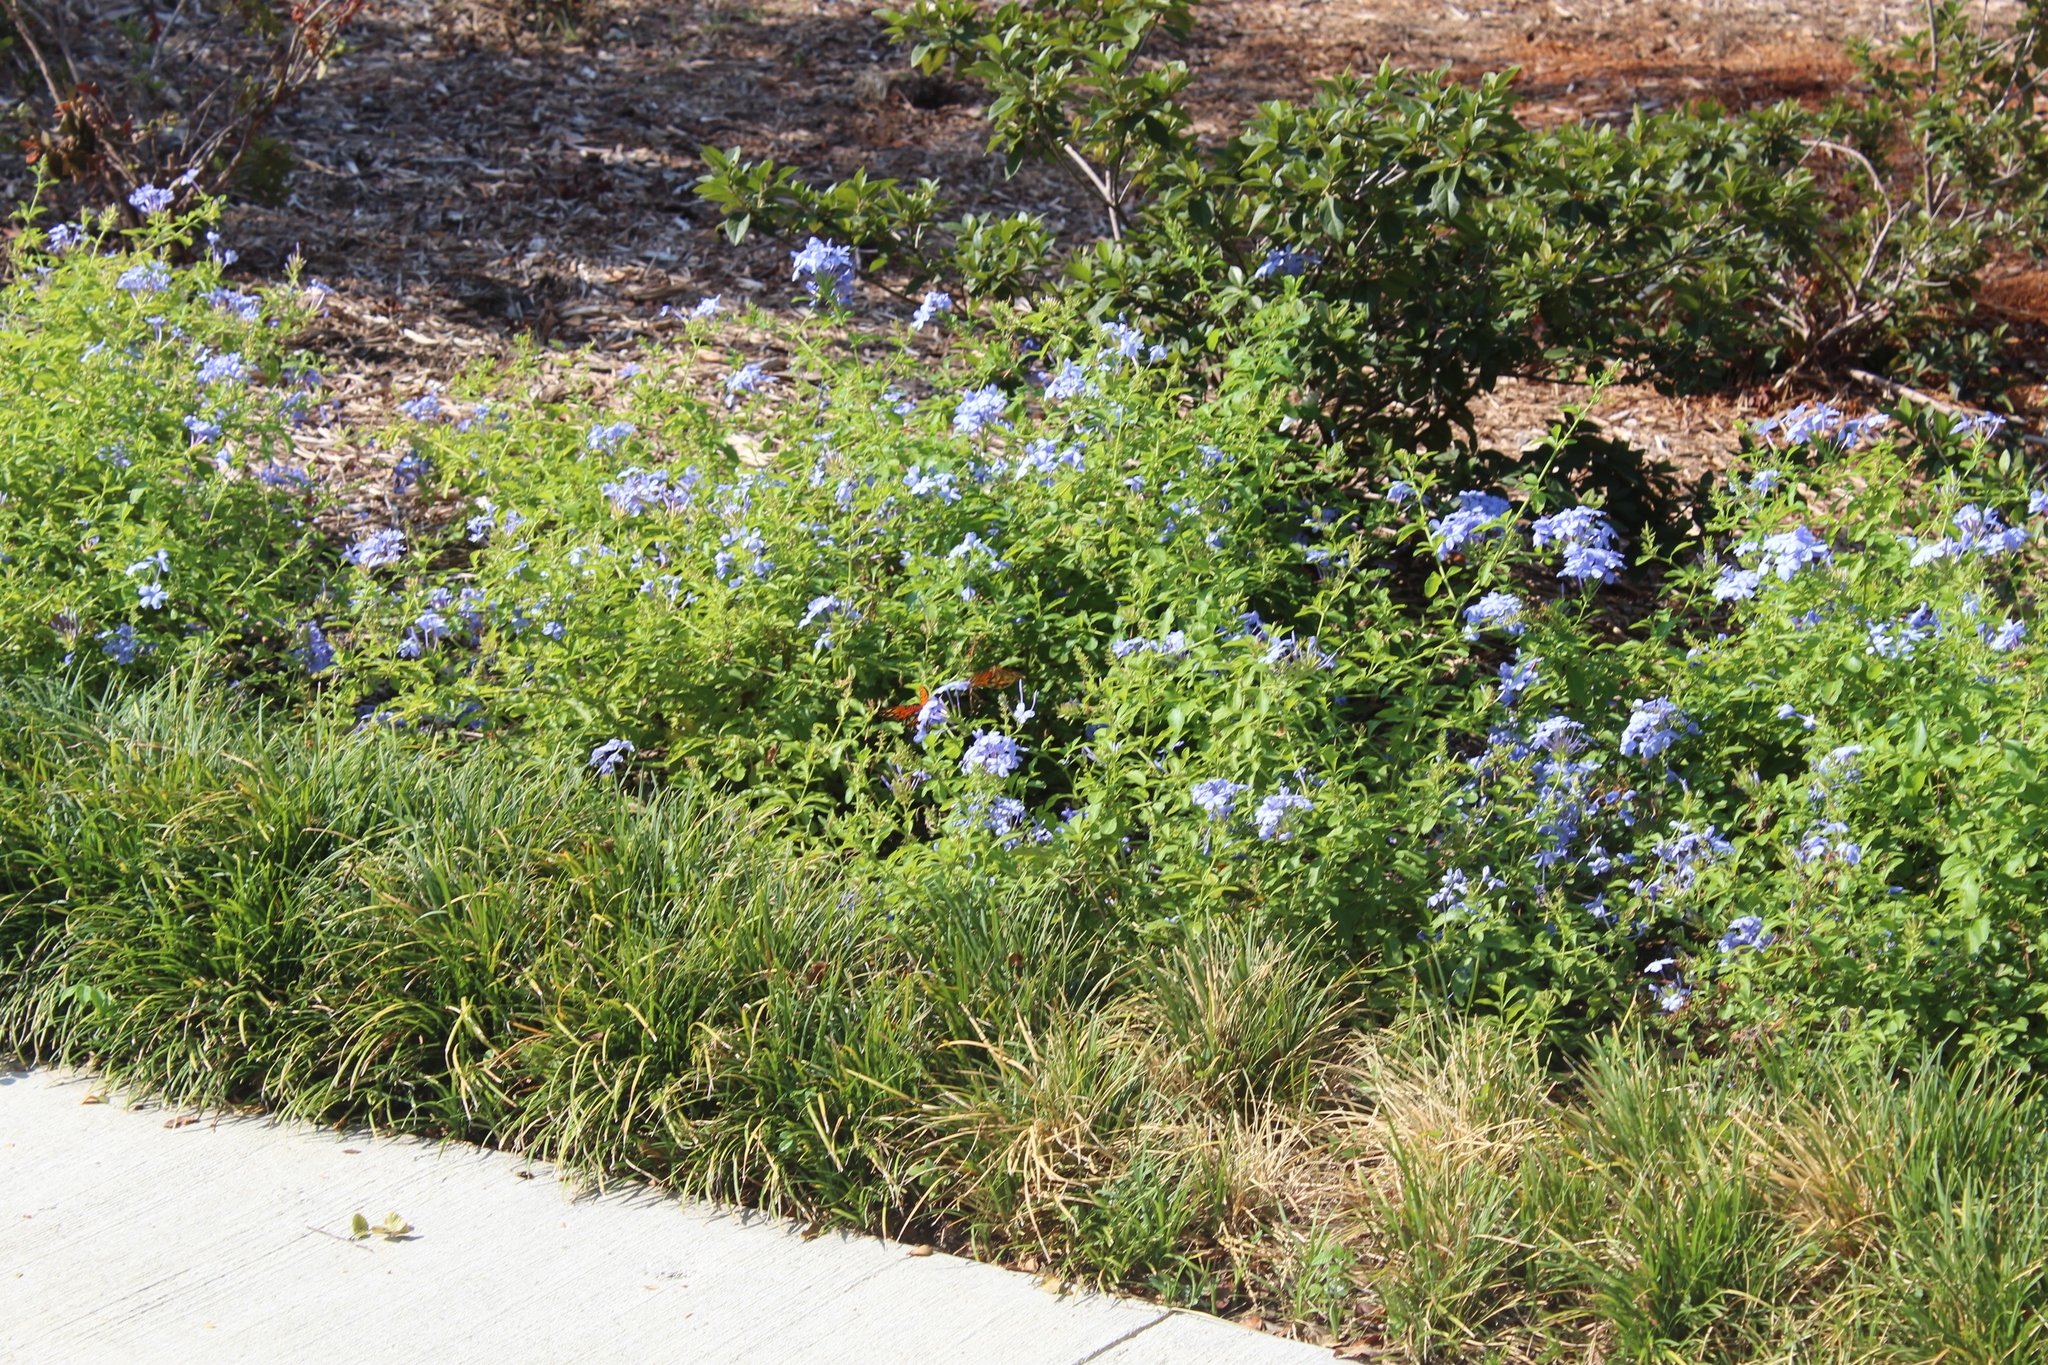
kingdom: Animalia
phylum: Arthropoda
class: Insecta
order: Lepidoptera
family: Nymphalidae
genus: Dione
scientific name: Dione vanillae
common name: Gulf fritillary
